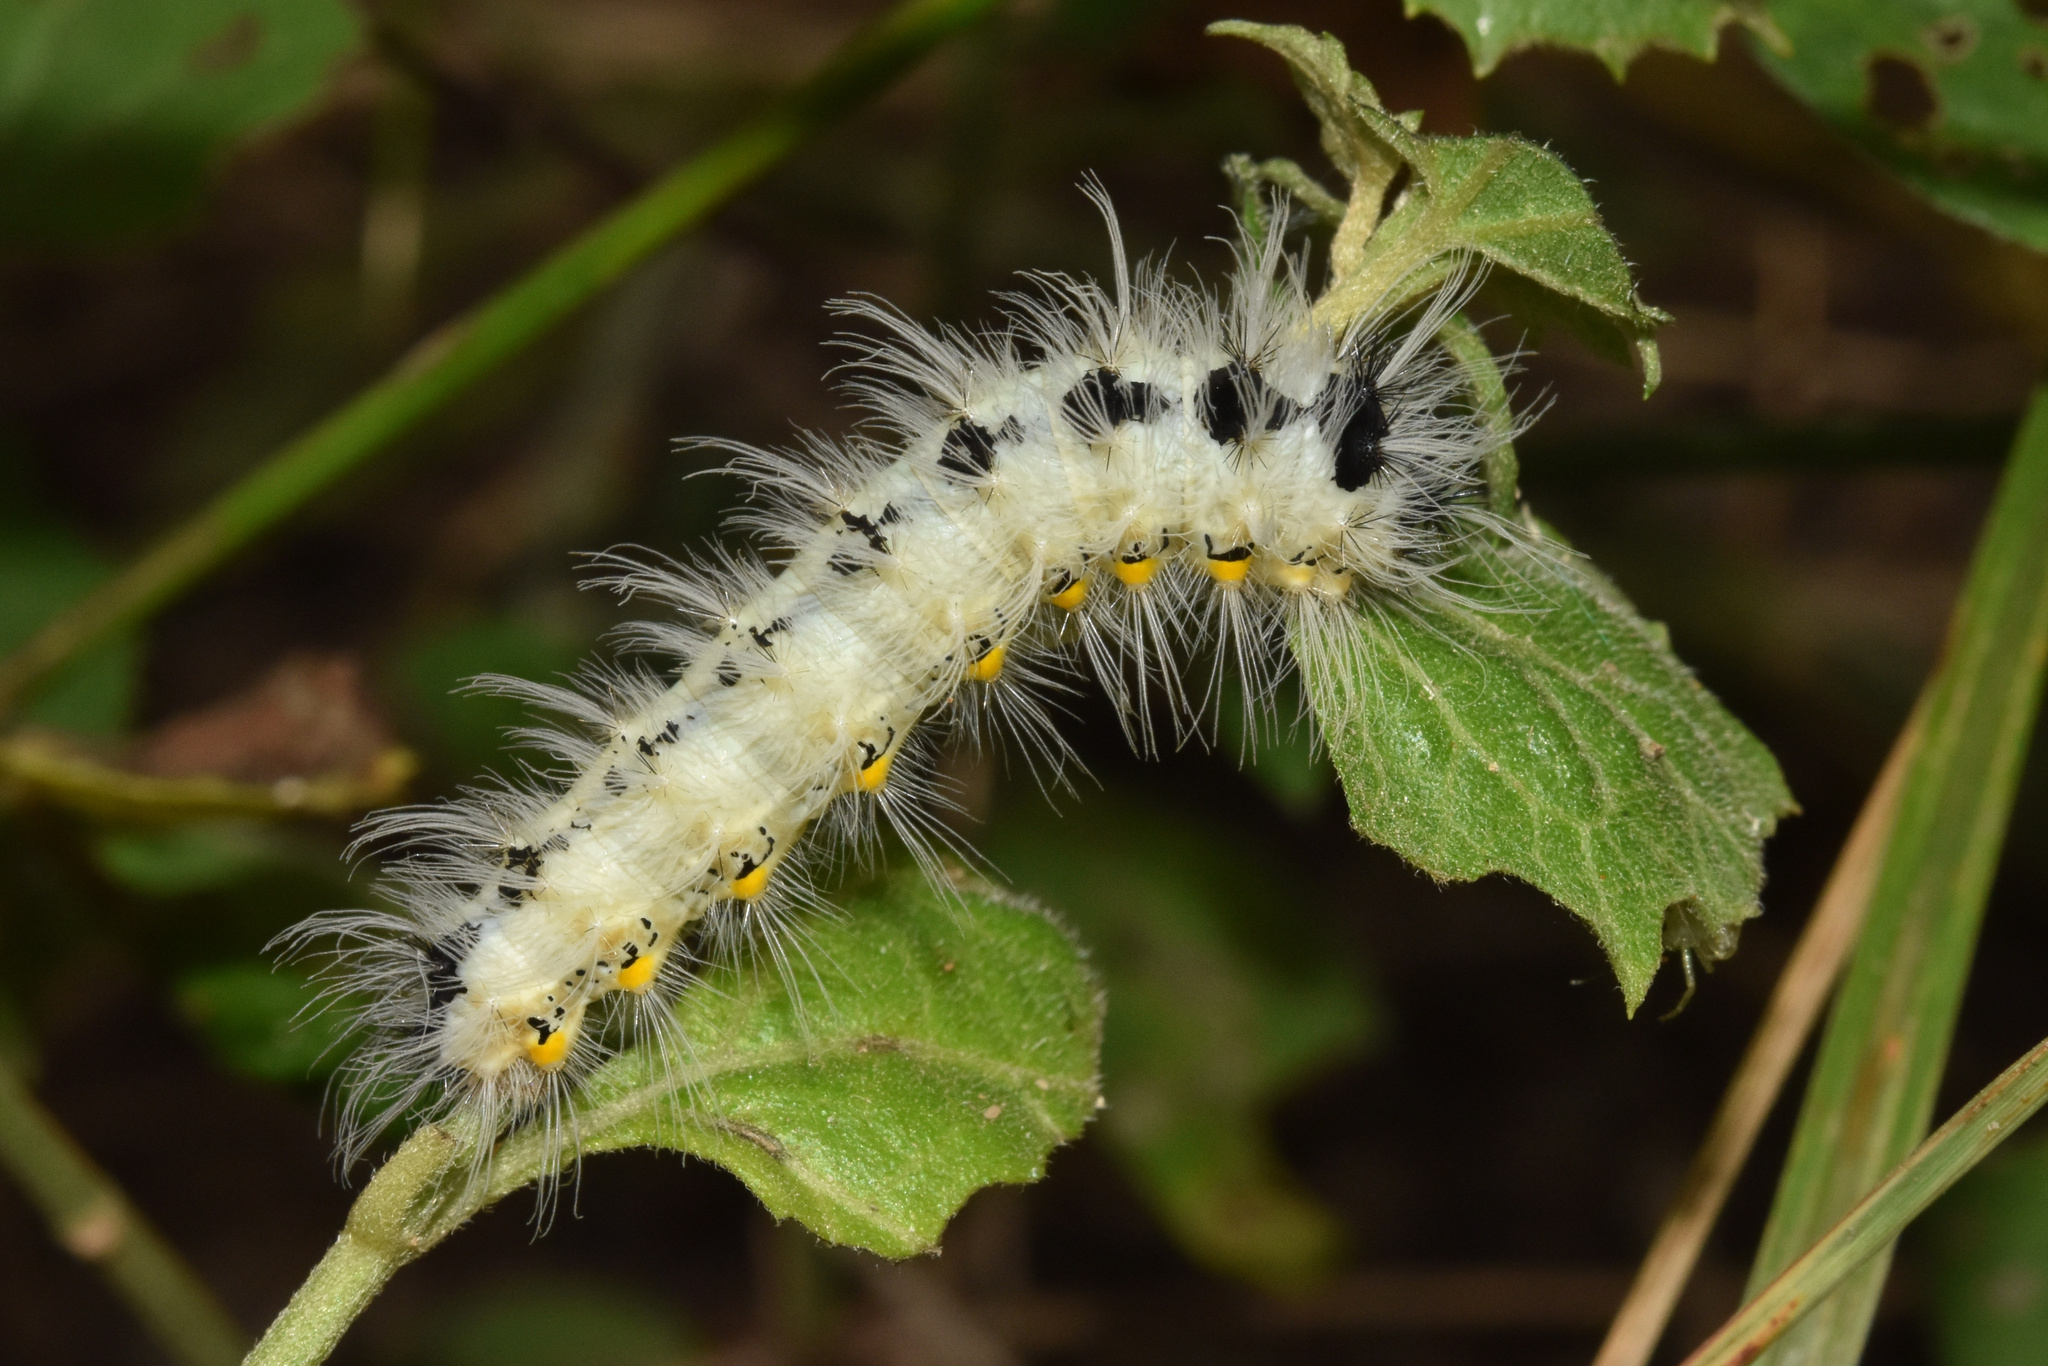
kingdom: Animalia
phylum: Arthropoda
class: Insecta
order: Lepidoptera
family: Saturniidae
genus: Ludia
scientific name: Ludia delegorguei
